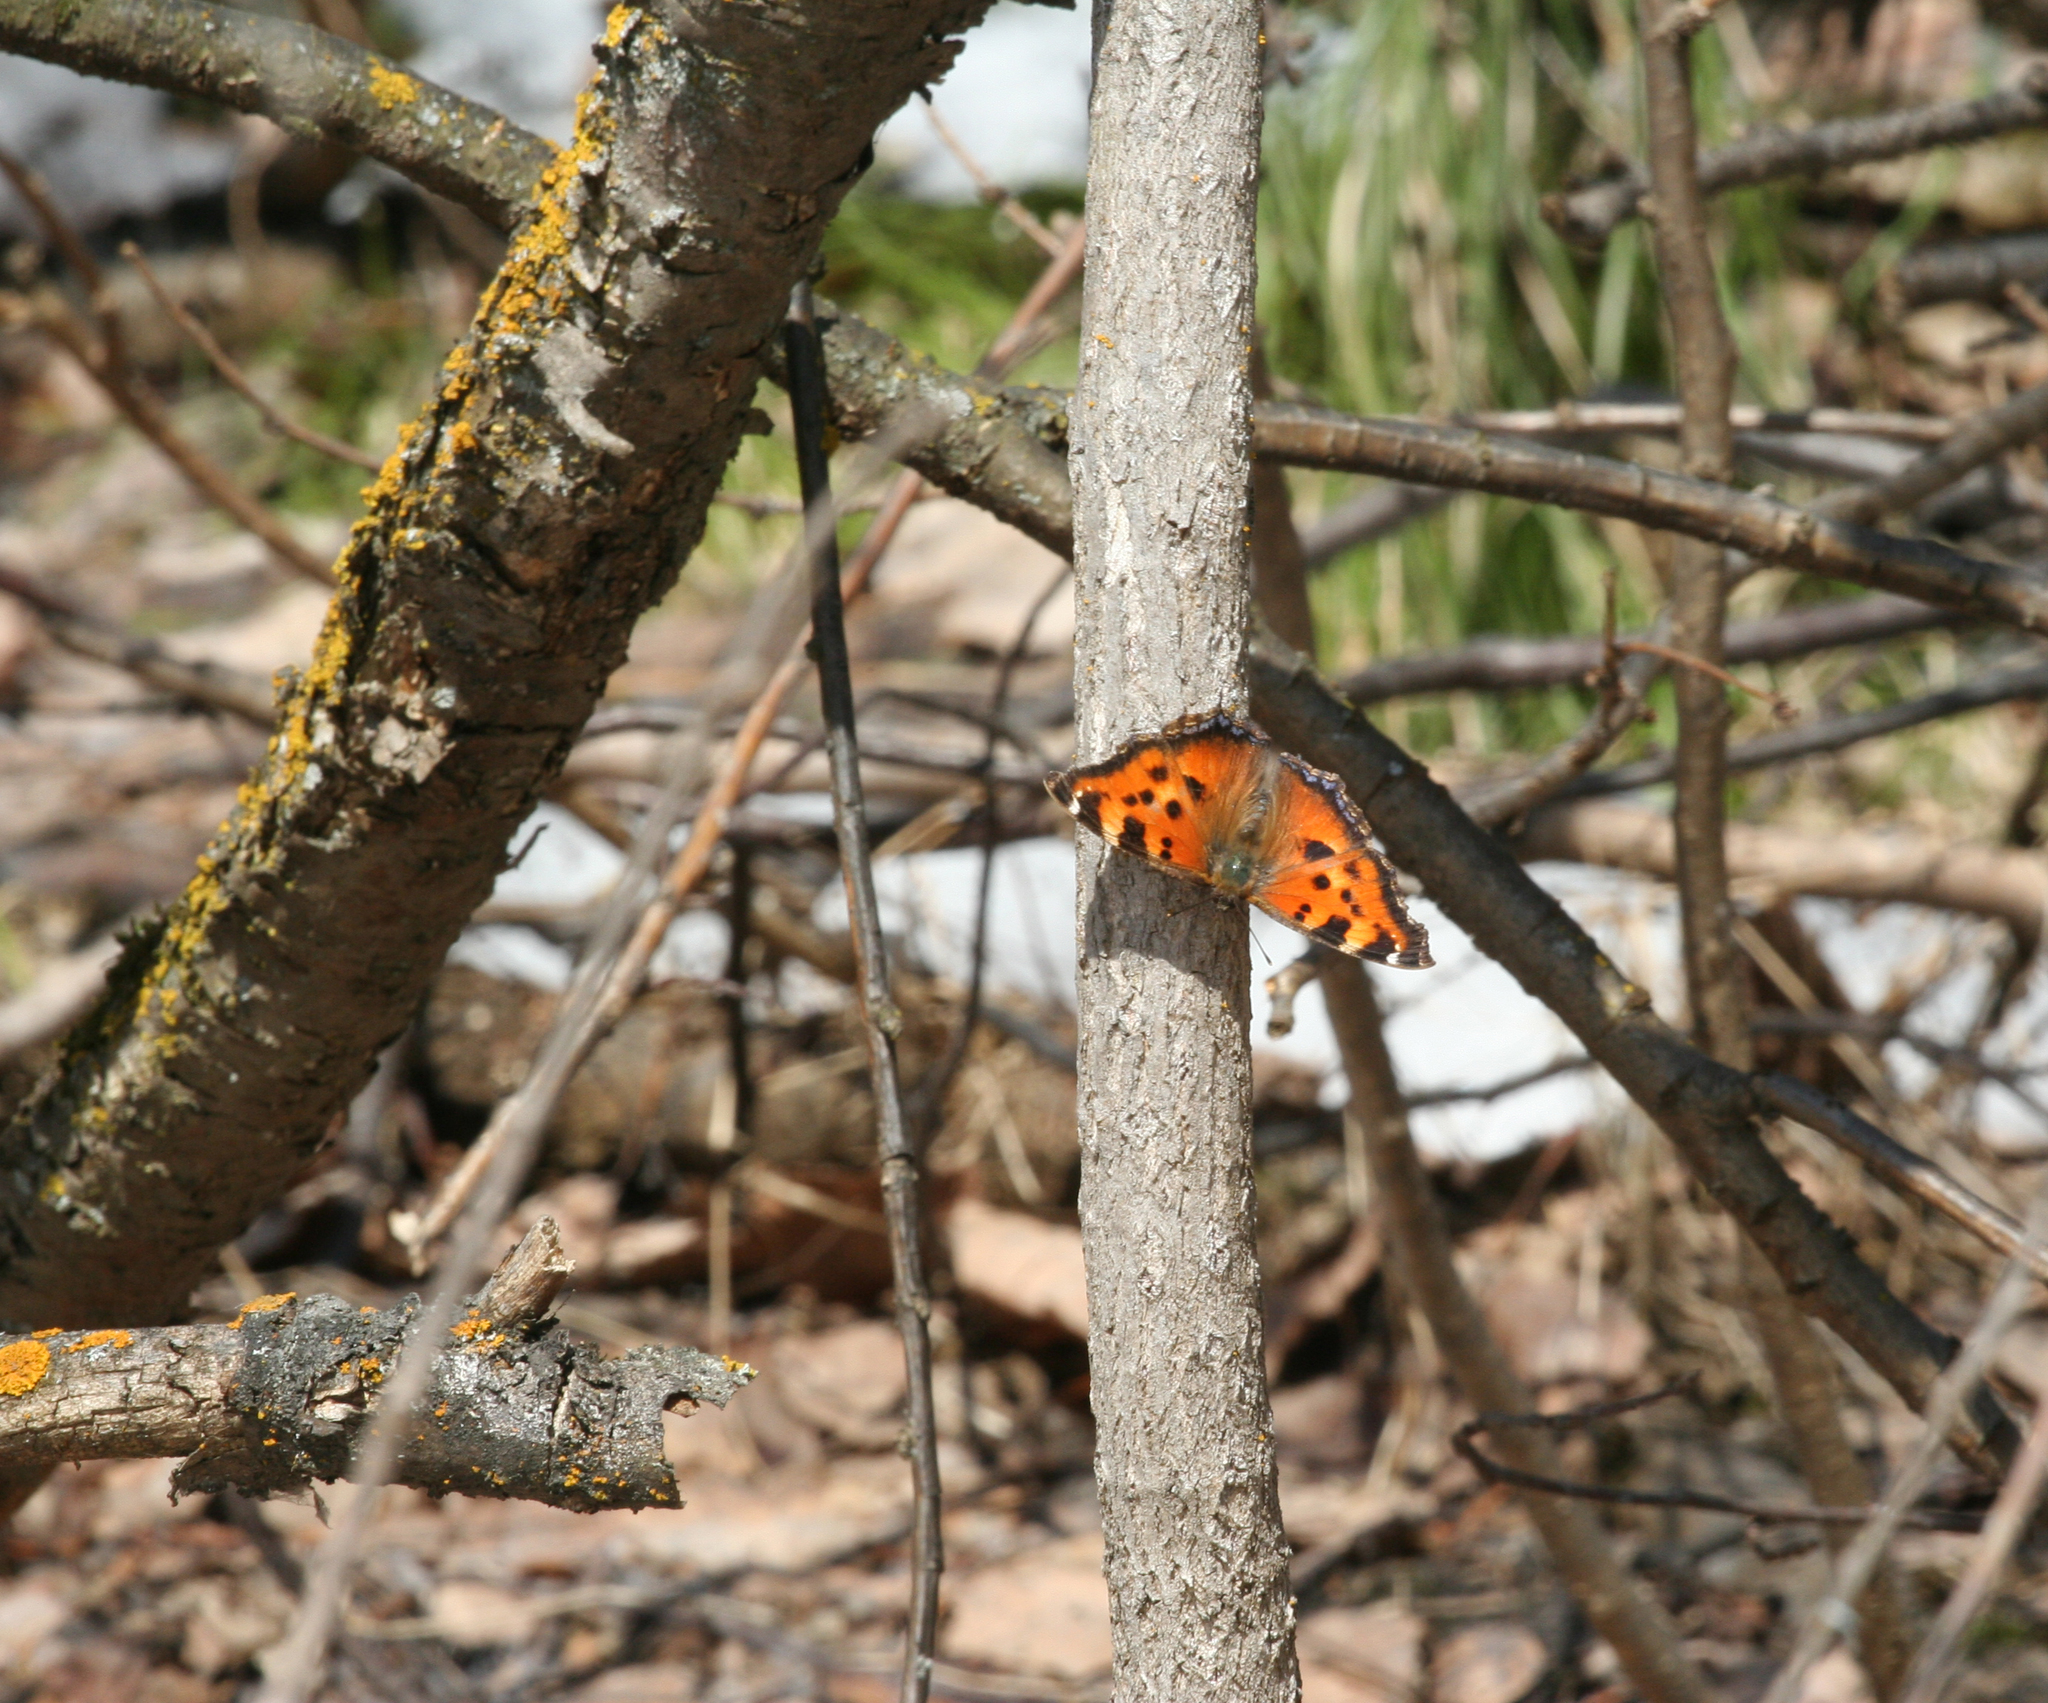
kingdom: Animalia
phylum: Arthropoda
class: Insecta
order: Lepidoptera
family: Nymphalidae
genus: Nymphalis
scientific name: Nymphalis xanthomelas
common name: Scarce tortoiseshell
